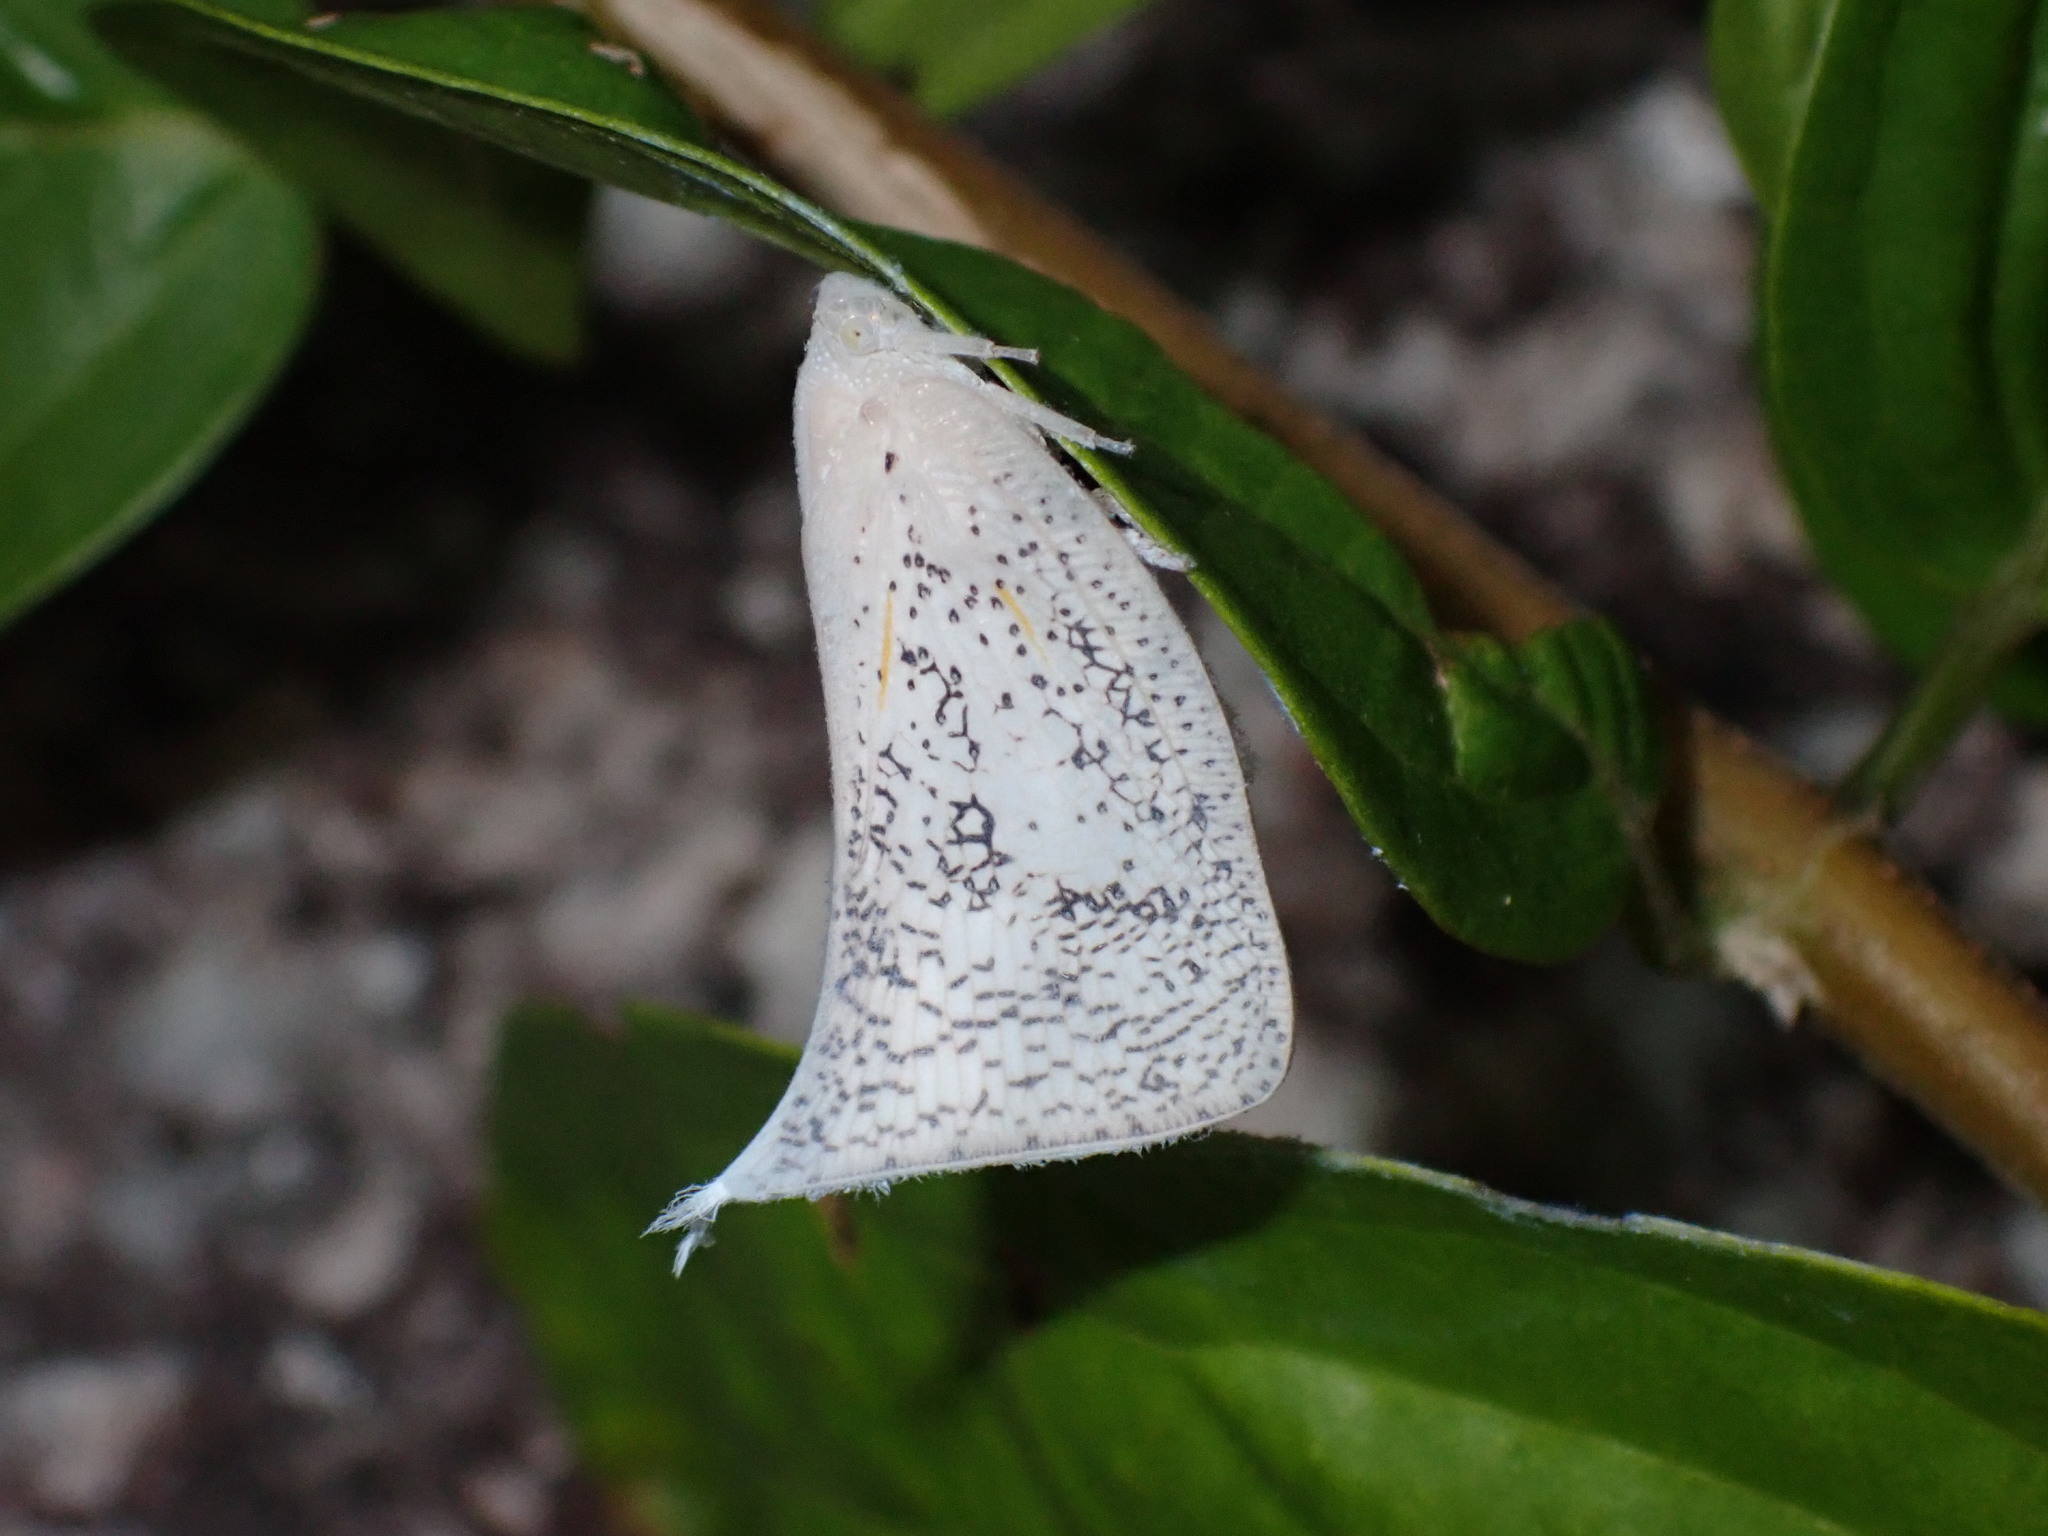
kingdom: Animalia
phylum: Arthropoda
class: Insecta
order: Hemiptera
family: Flatidae
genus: Lawana
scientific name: Lawana conspersa
